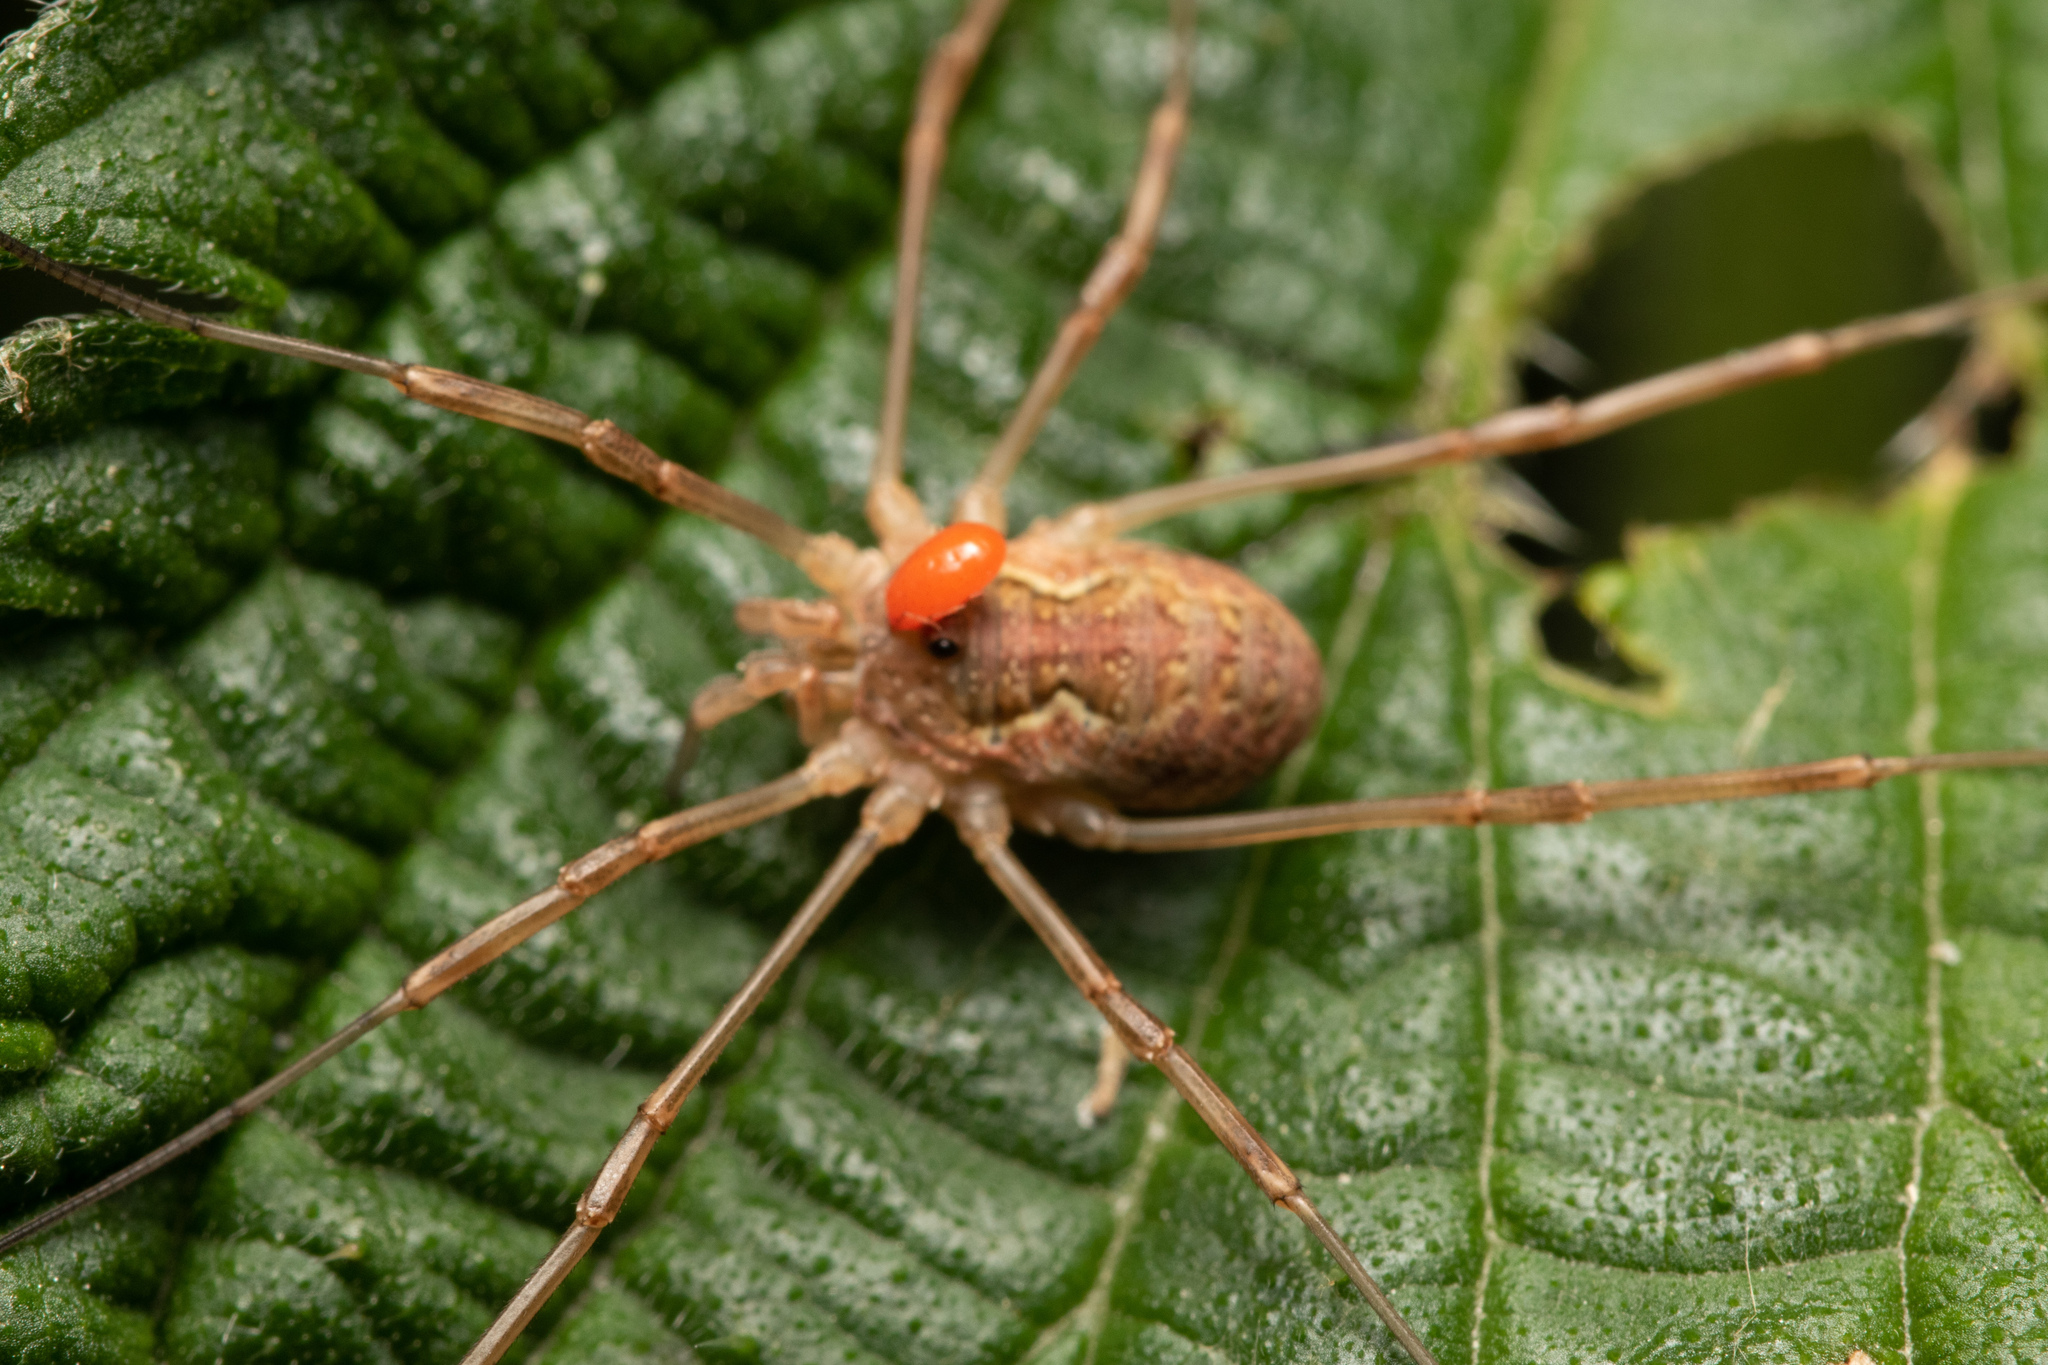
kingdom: Animalia
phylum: Arthropoda
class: Arachnida
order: Opiliones
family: Phalangiidae
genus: Mitopus
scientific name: Mitopus morio
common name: Saddleback harvestman
